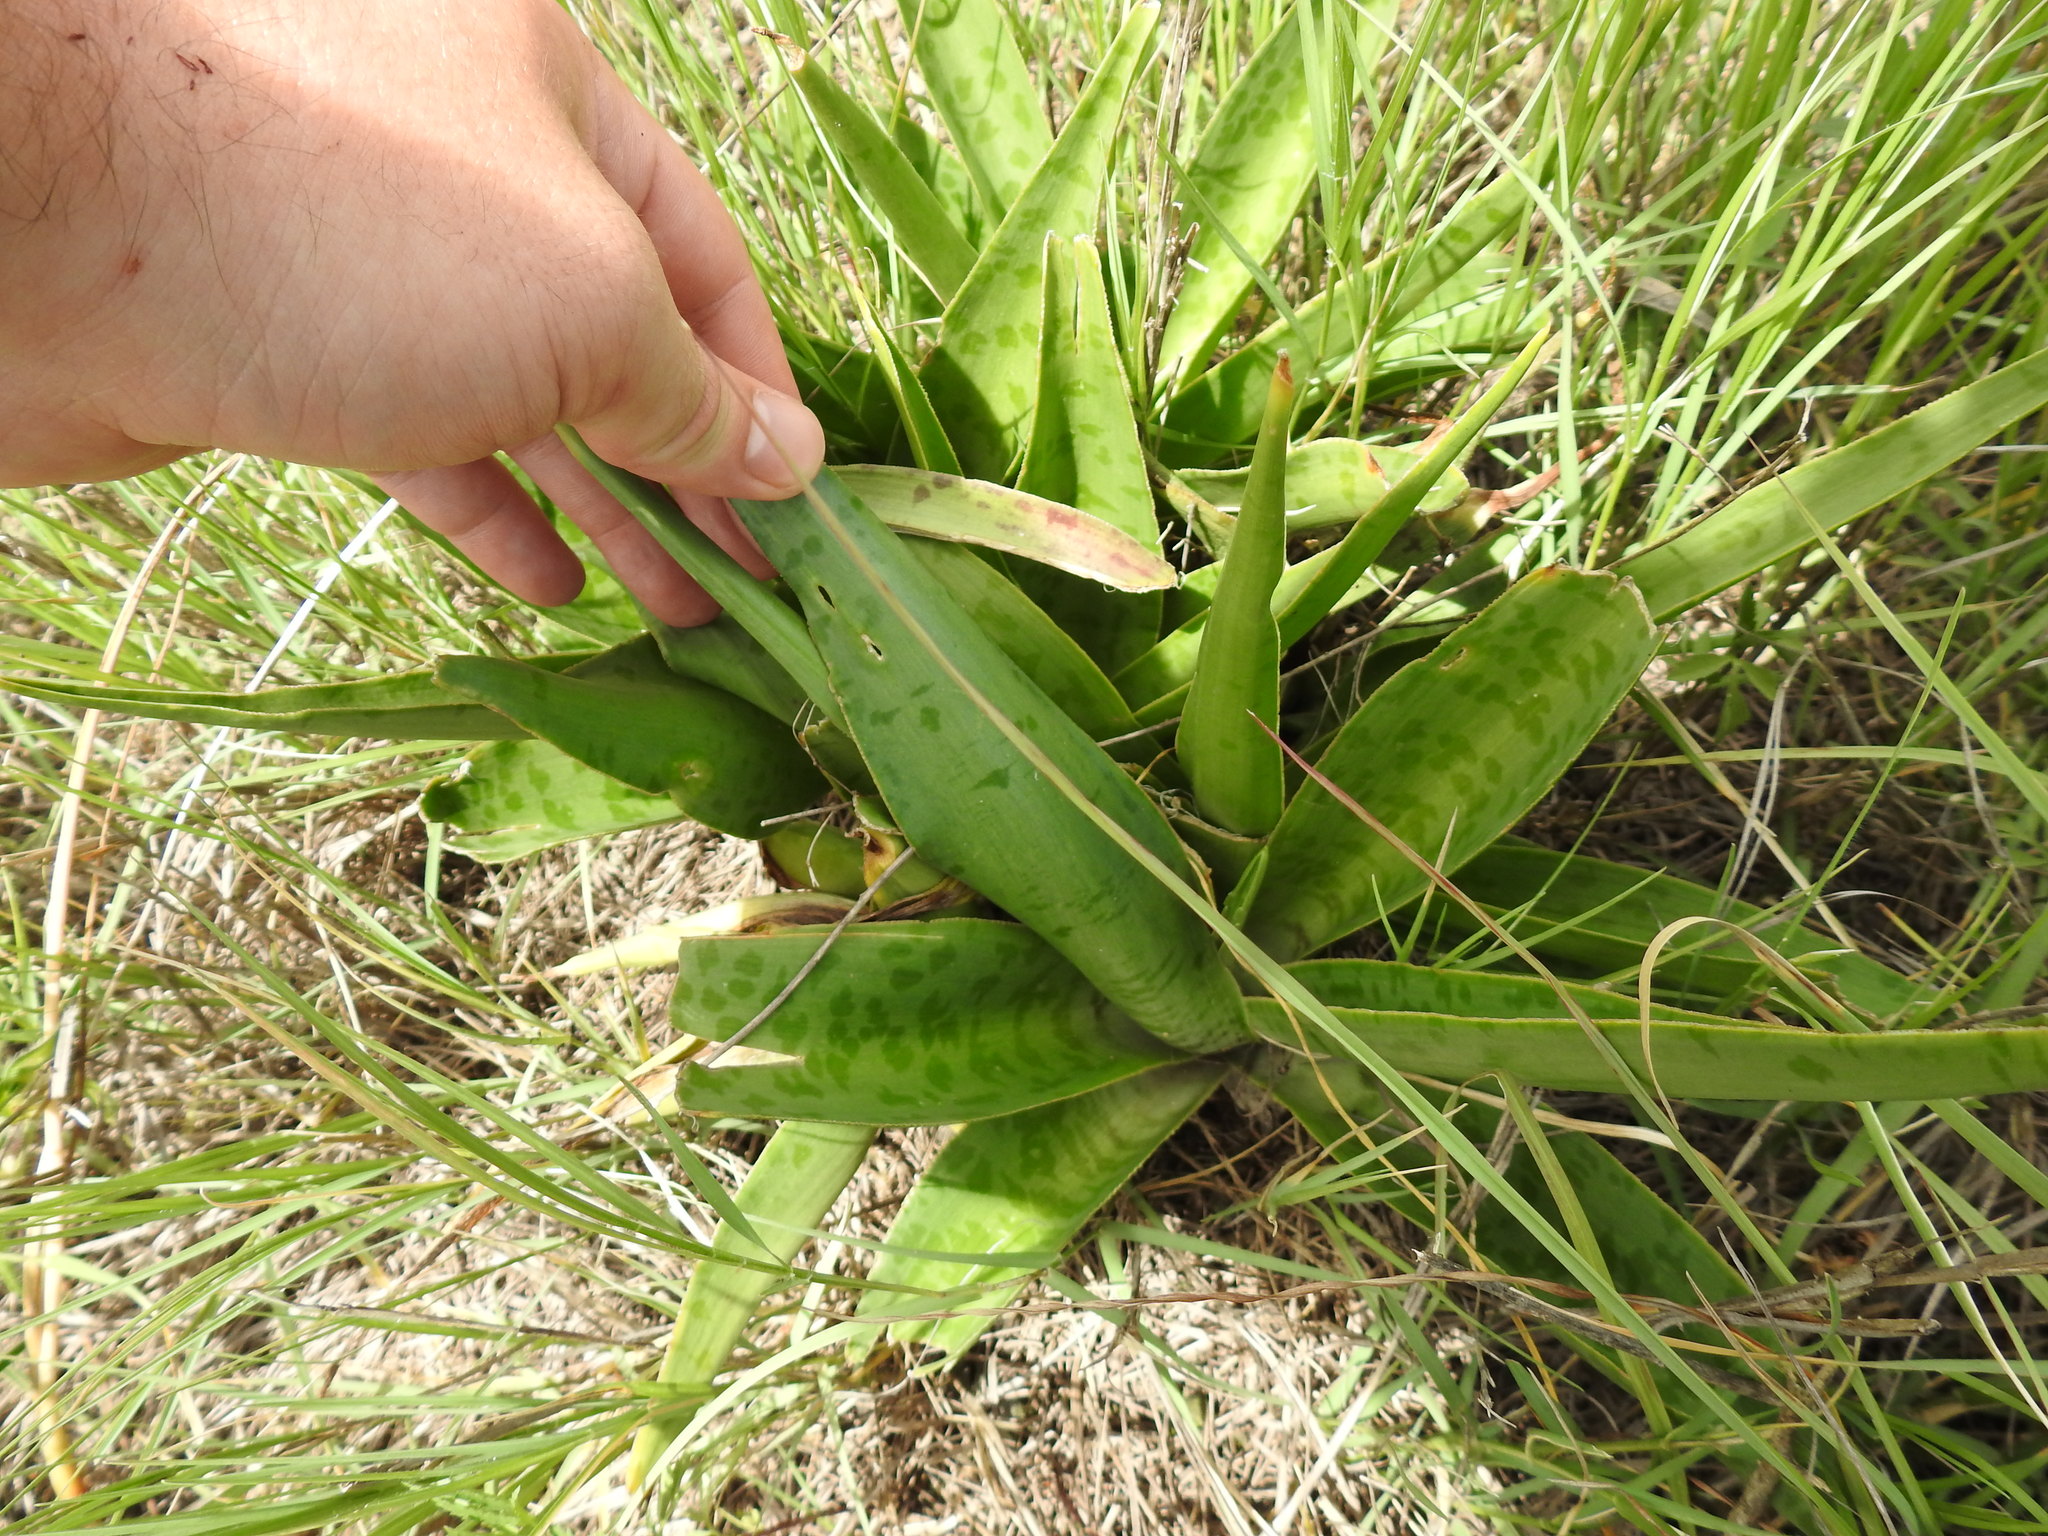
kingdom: Plantae
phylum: Tracheophyta
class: Liliopsida
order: Asparagales
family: Asparagaceae
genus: Ledebouria
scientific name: Ledebouria luteola
